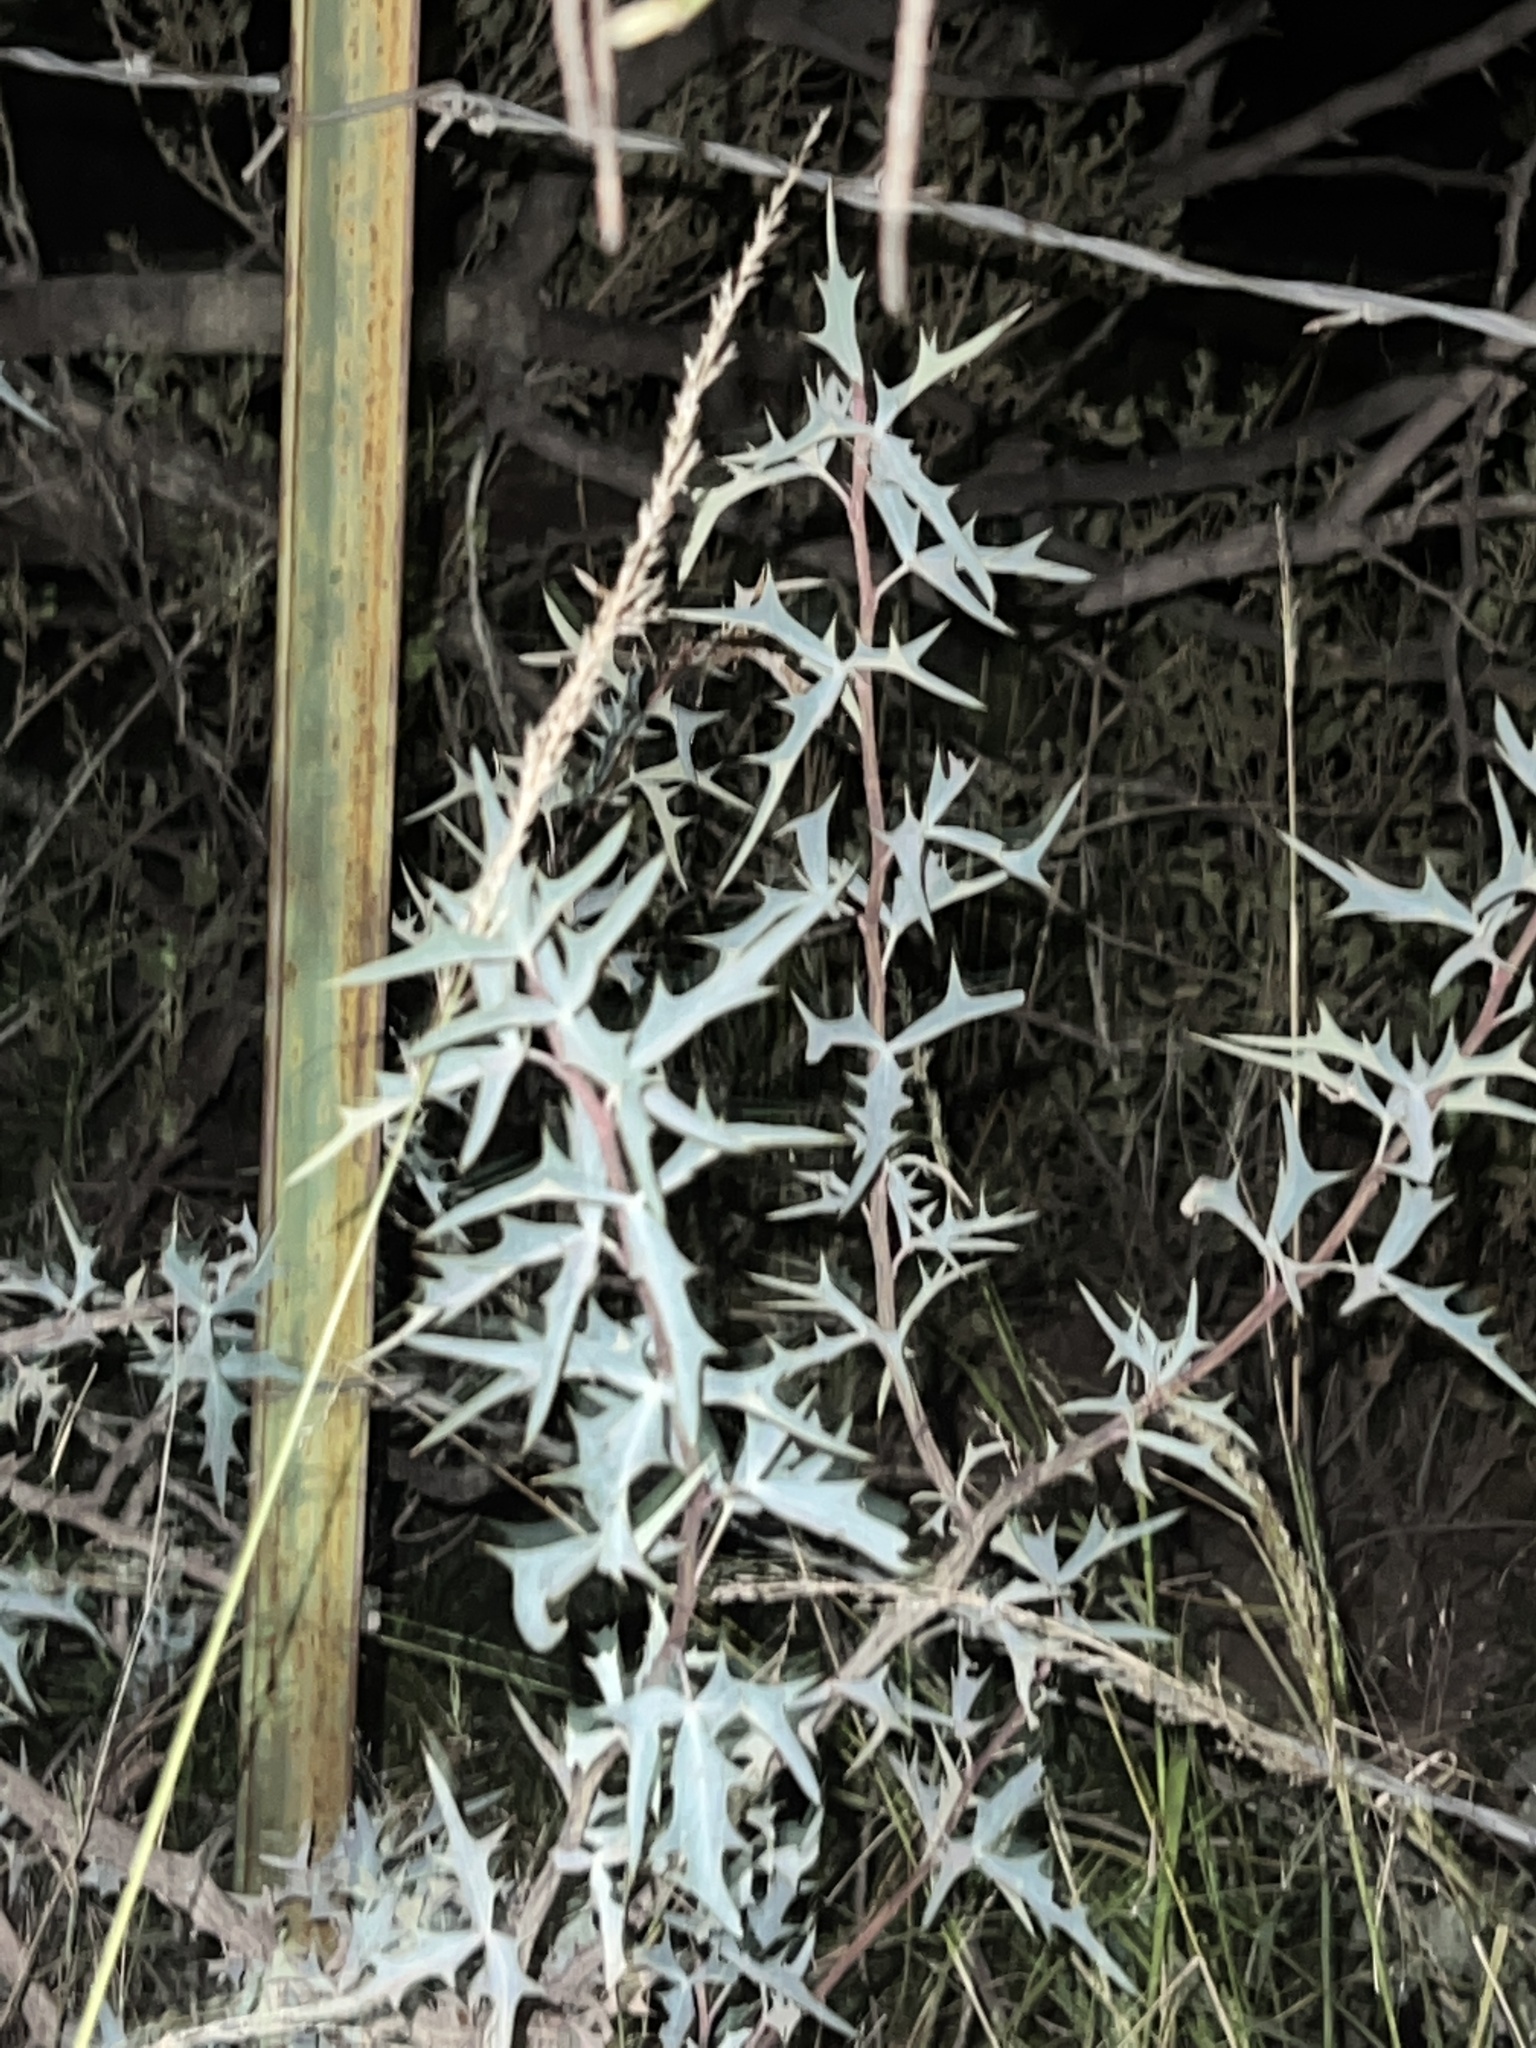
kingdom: Plantae
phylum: Tracheophyta
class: Magnoliopsida
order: Ranunculales
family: Berberidaceae
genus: Alloberberis
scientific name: Alloberberis trifoliolata
